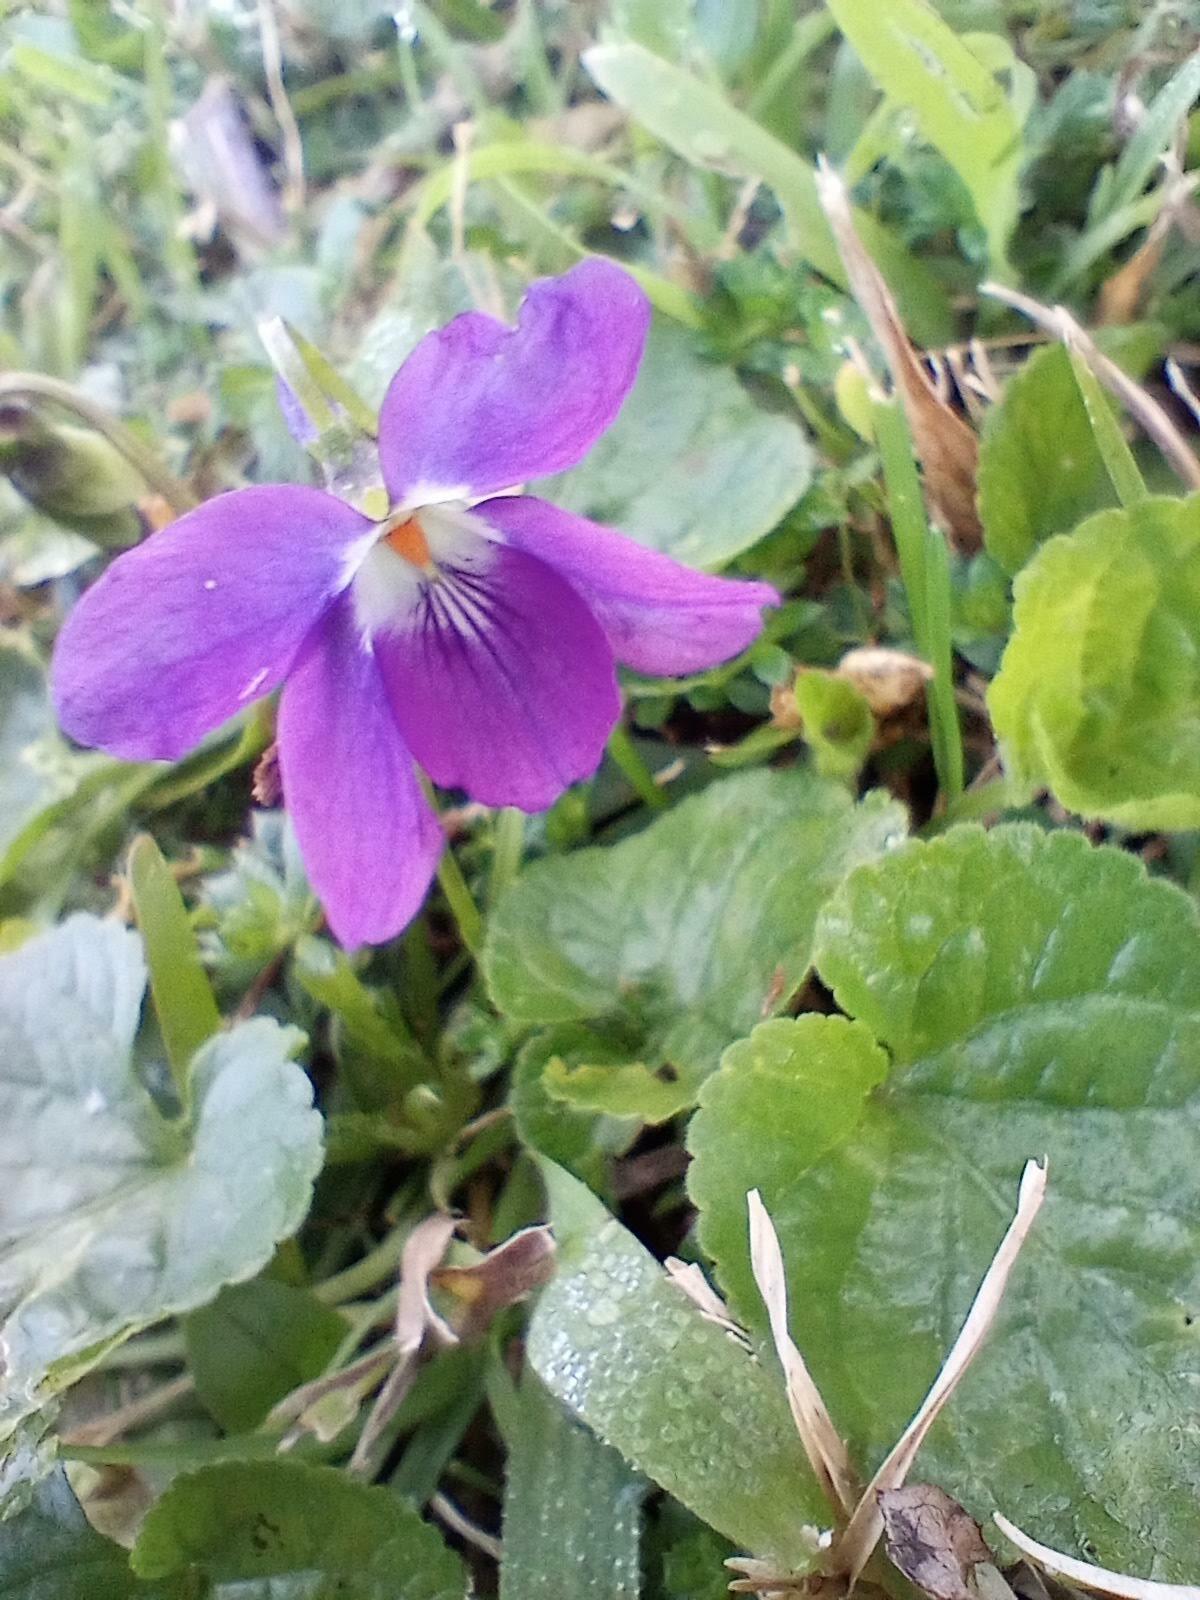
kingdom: Plantae
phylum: Tracheophyta
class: Magnoliopsida
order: Malpighiales
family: Violaceae
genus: Viola
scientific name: Viola odorata
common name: Sweet violet
